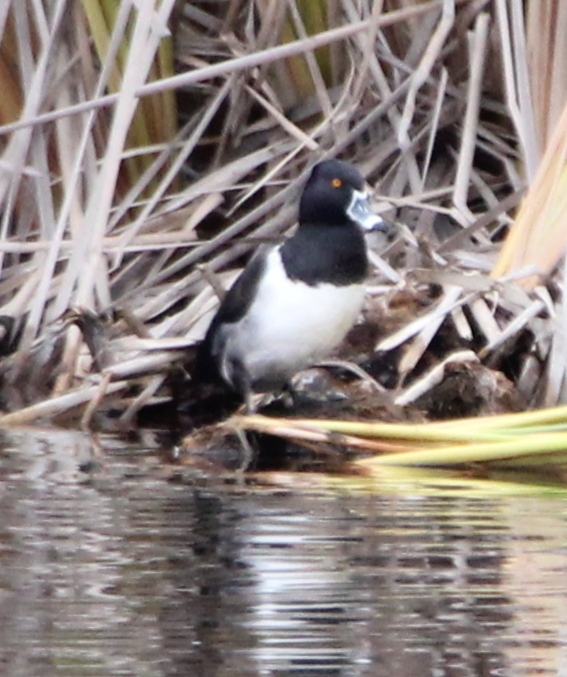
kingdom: Animalia
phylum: Chordata
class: Aves
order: Anseriformes
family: Anatidae
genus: Aythya
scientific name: Aythya collaris
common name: Ring-necked duck
